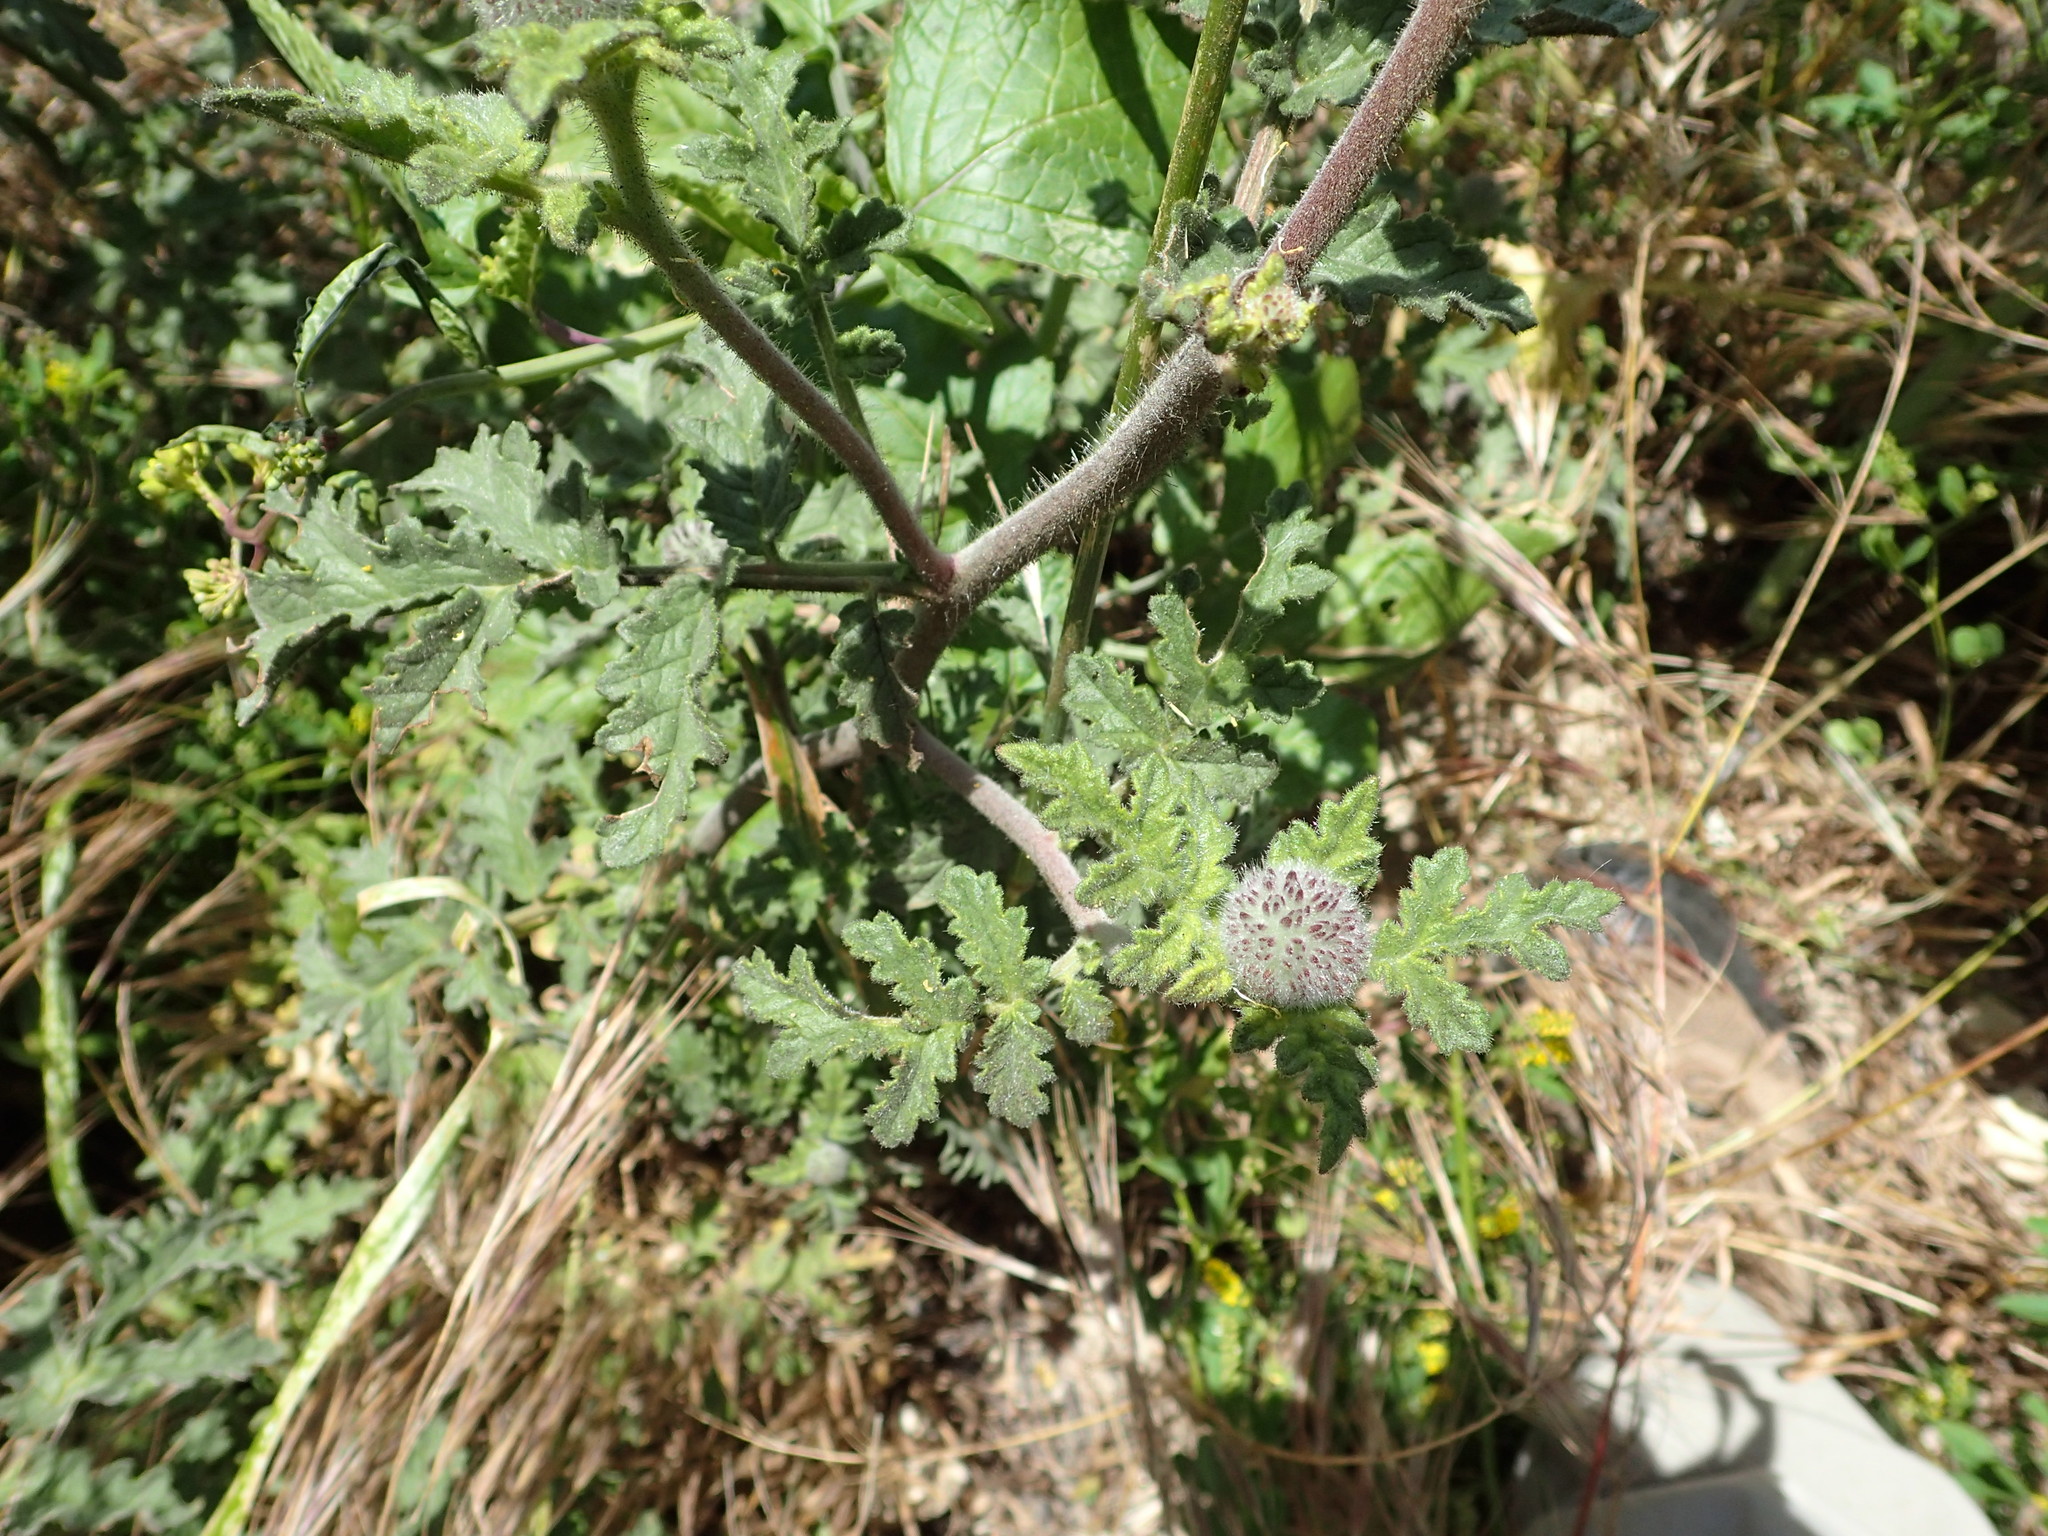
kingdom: Plantae
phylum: Tracheophyta
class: Magnoliopsida
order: Boraginales
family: Hydrophyllaceae
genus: Phacelia
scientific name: Phacelia hubbyi
